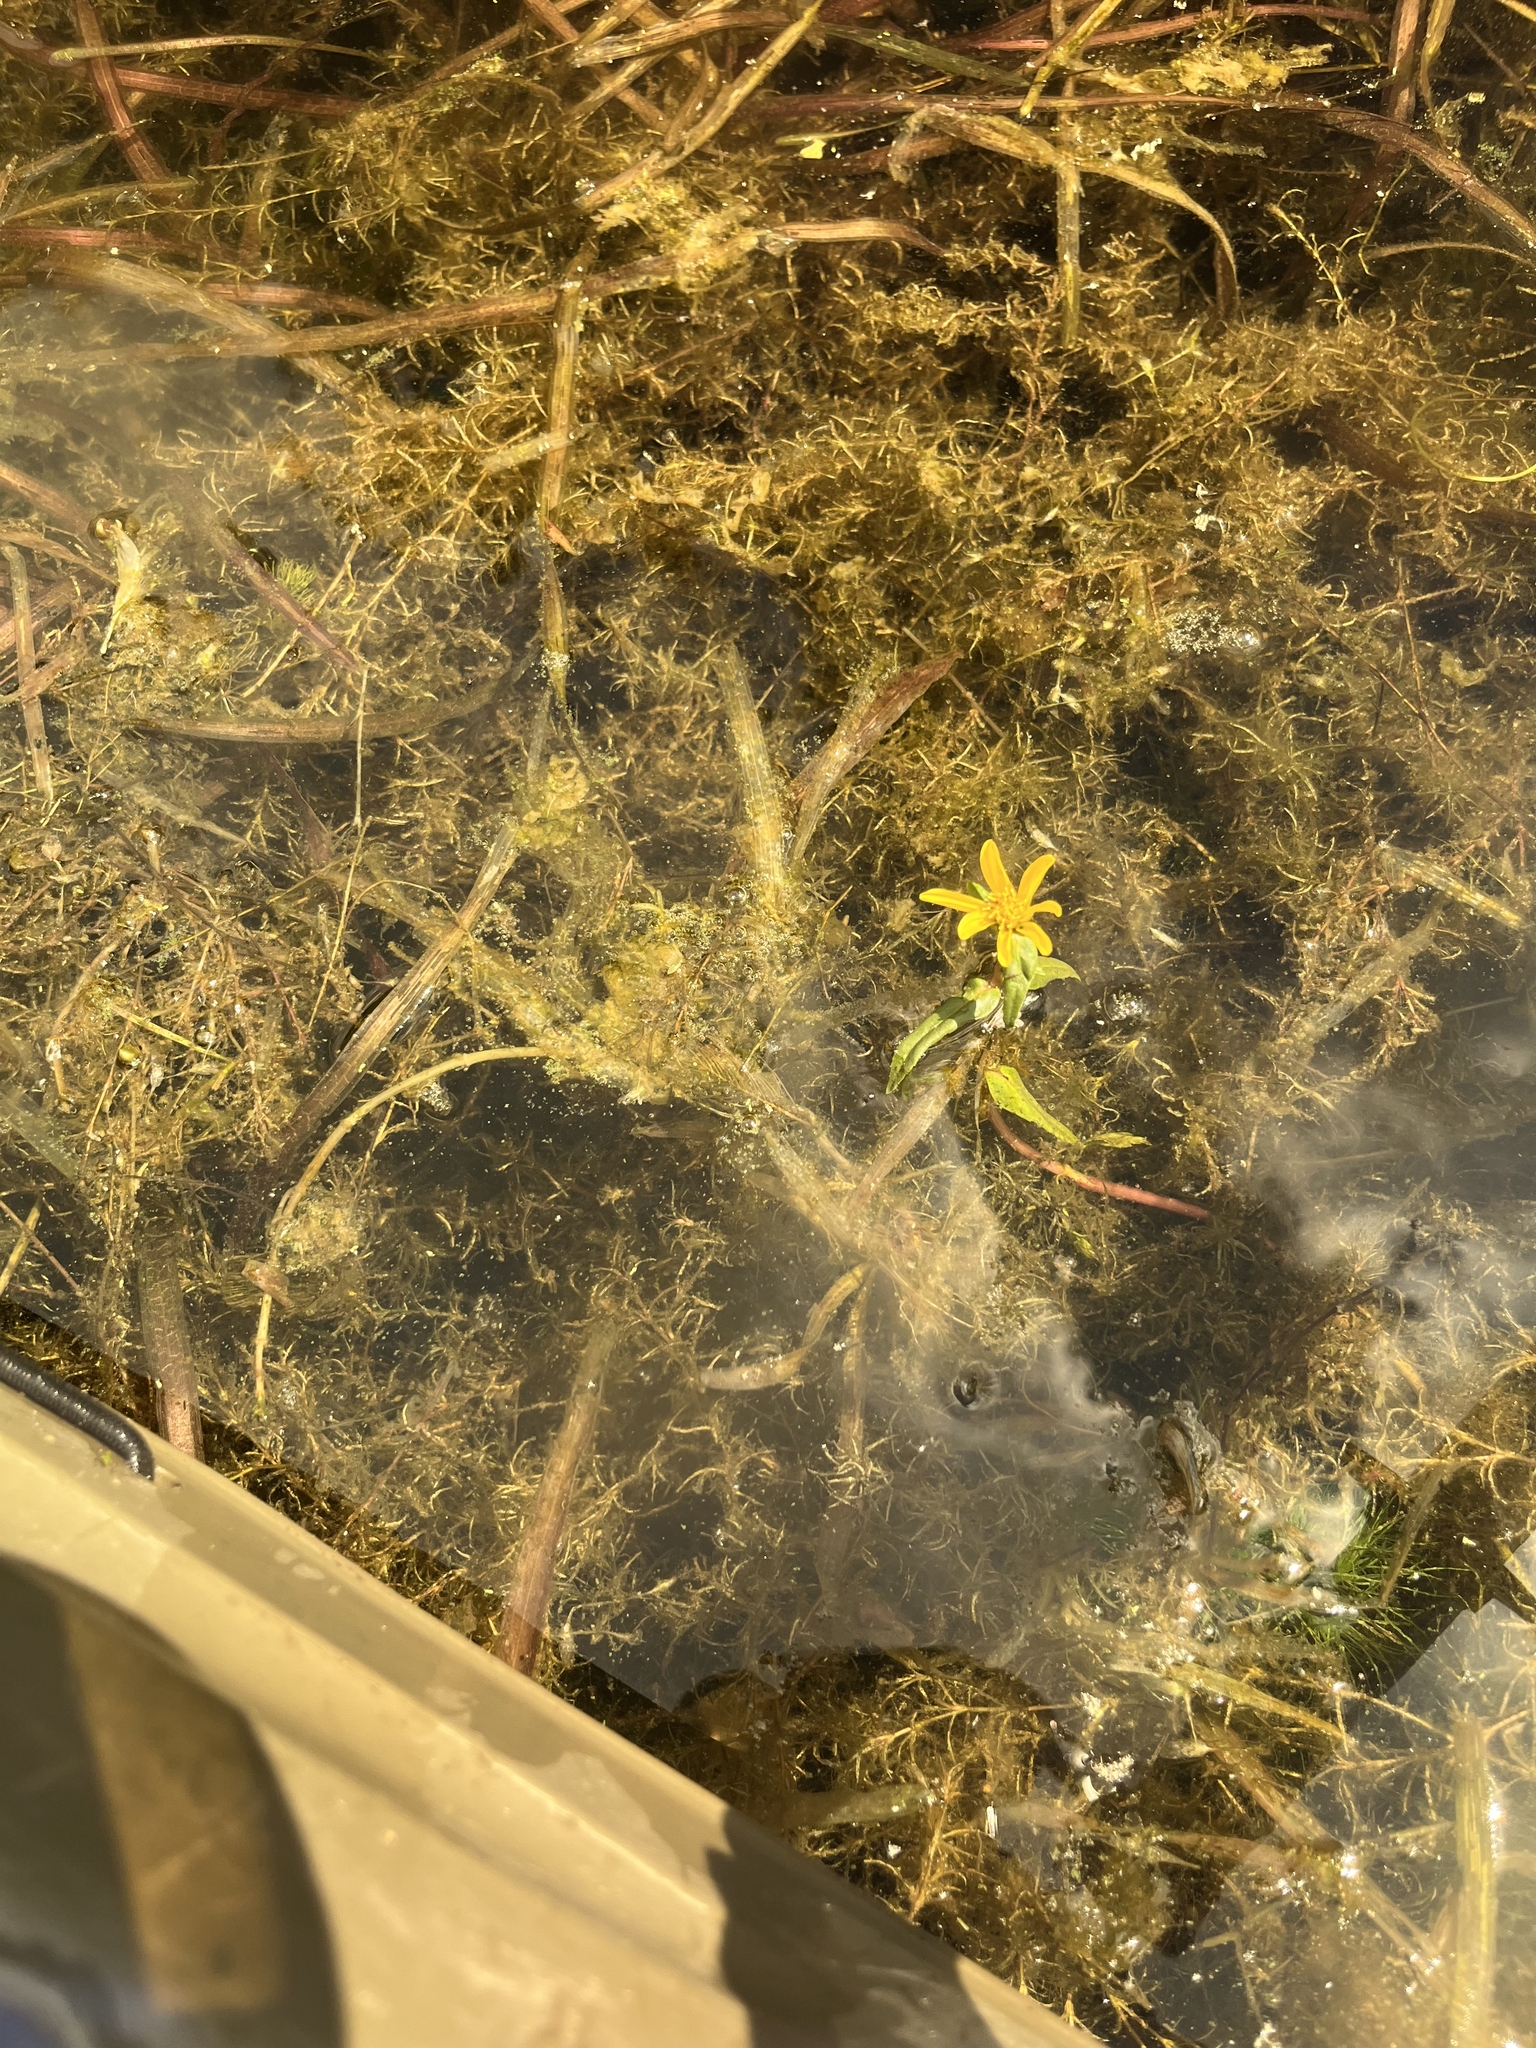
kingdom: Plantae
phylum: Tracheophyta
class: Magnoliopsida
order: Asterales
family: Asteraceae
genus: Bidens
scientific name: Bidens beckii
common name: Beck's beggarticks
